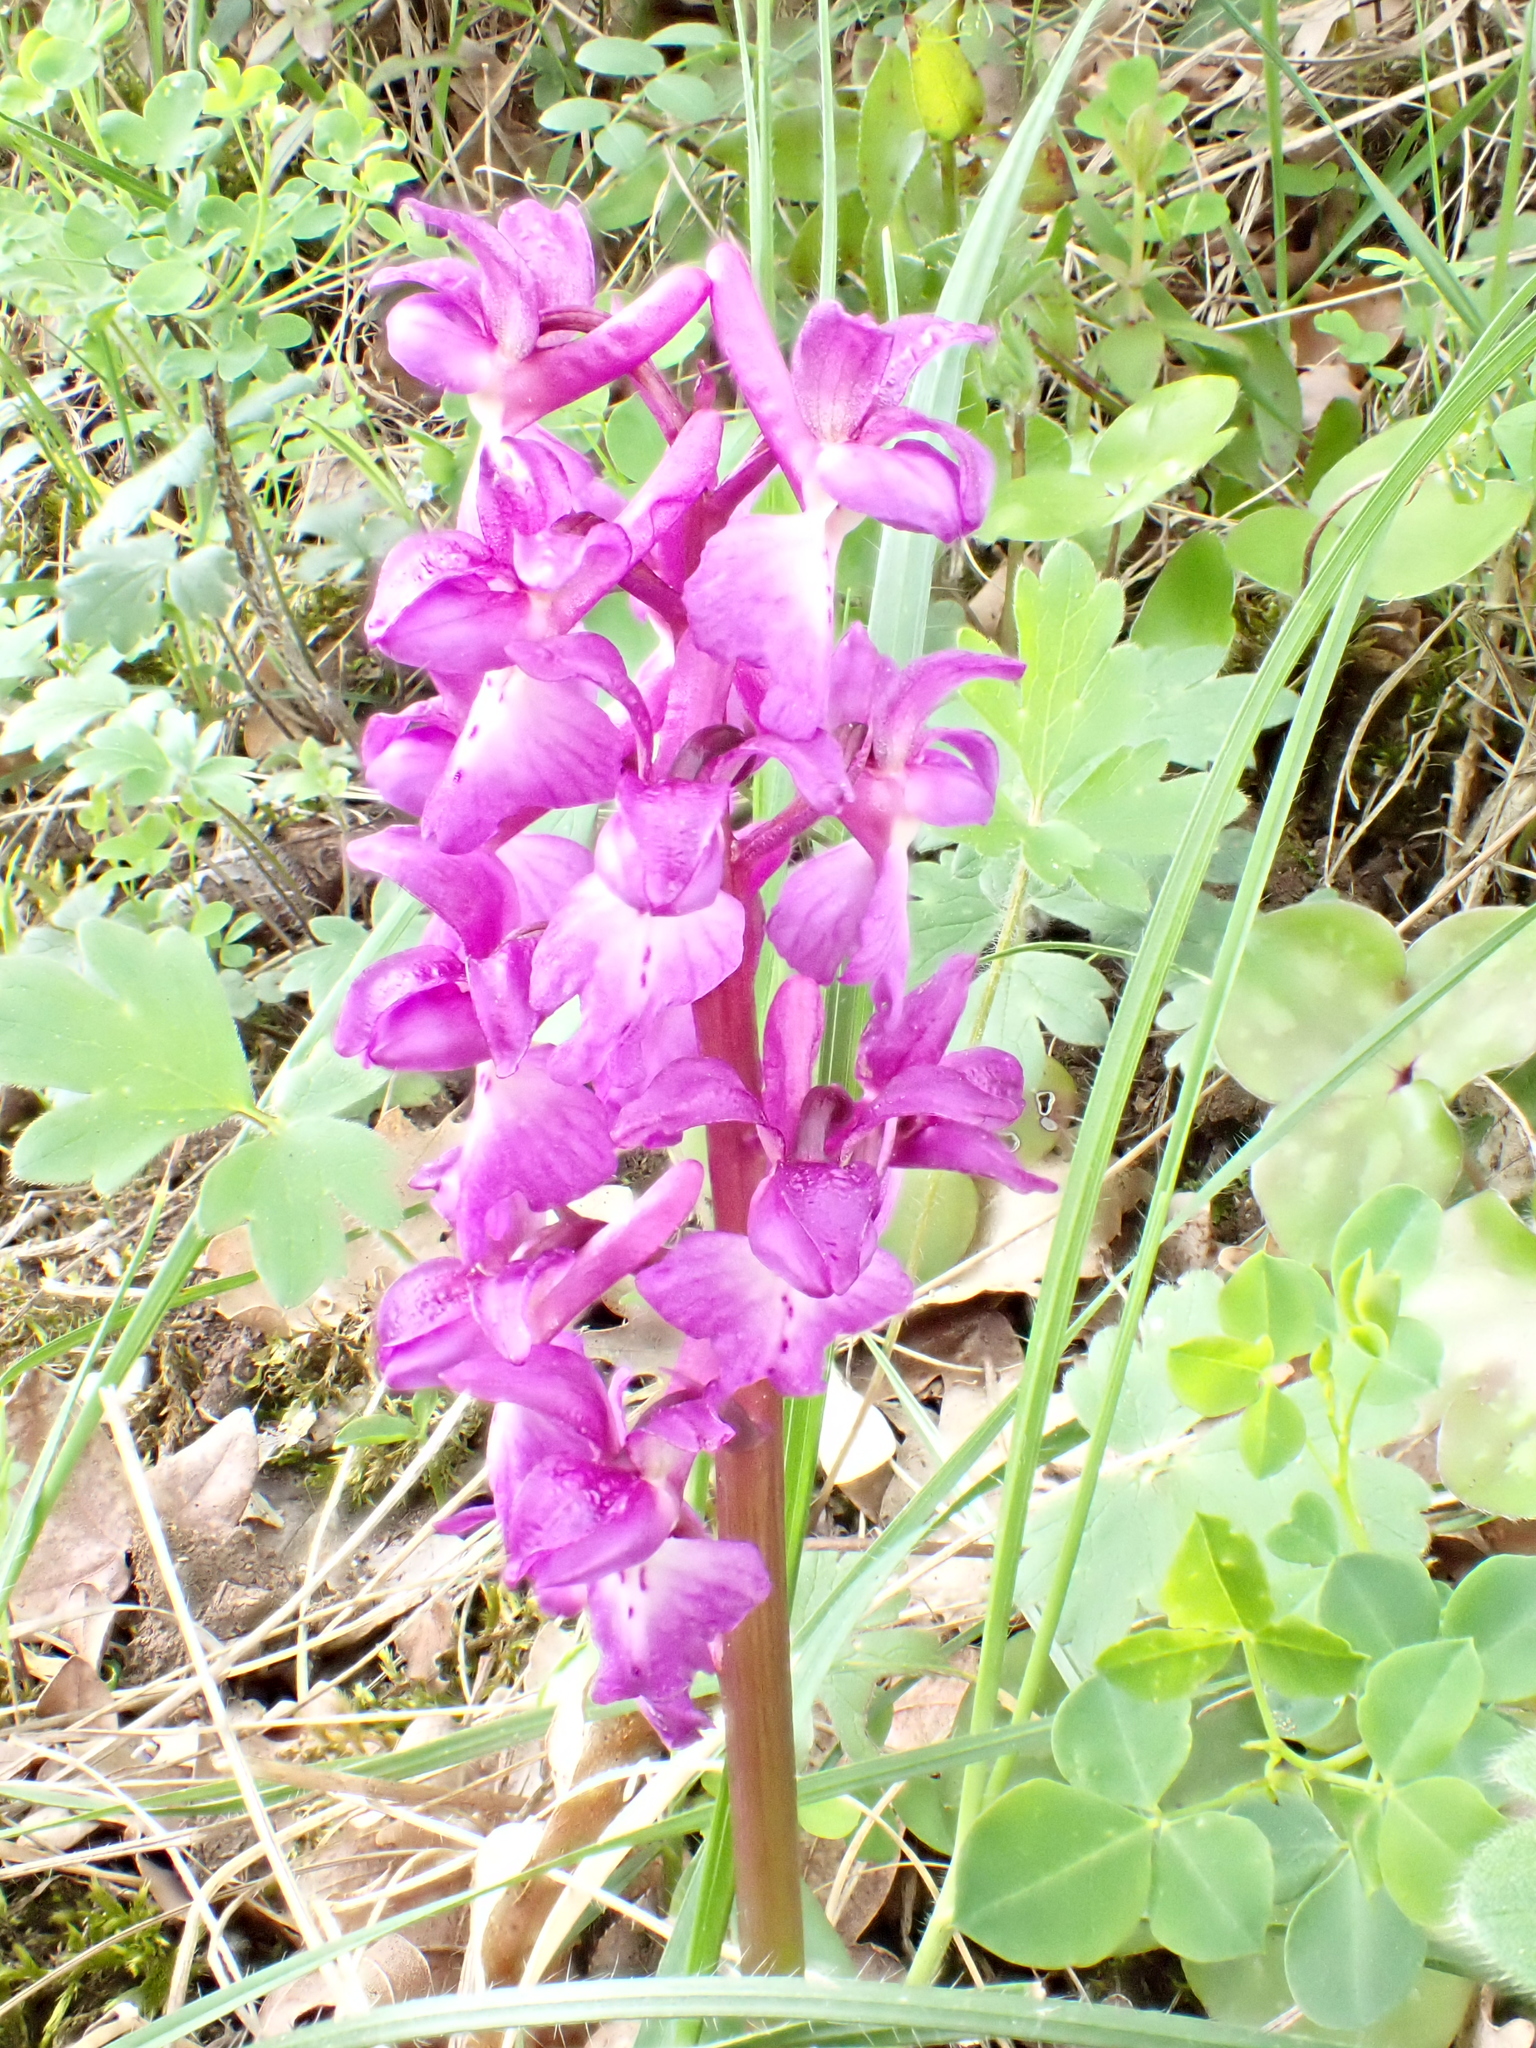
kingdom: Plantae
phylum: Tracheophyta
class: Liliopsida
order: Asparagales
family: Orchidaceae
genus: Orchis
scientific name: Orchis mascula
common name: Early-purple orchid
